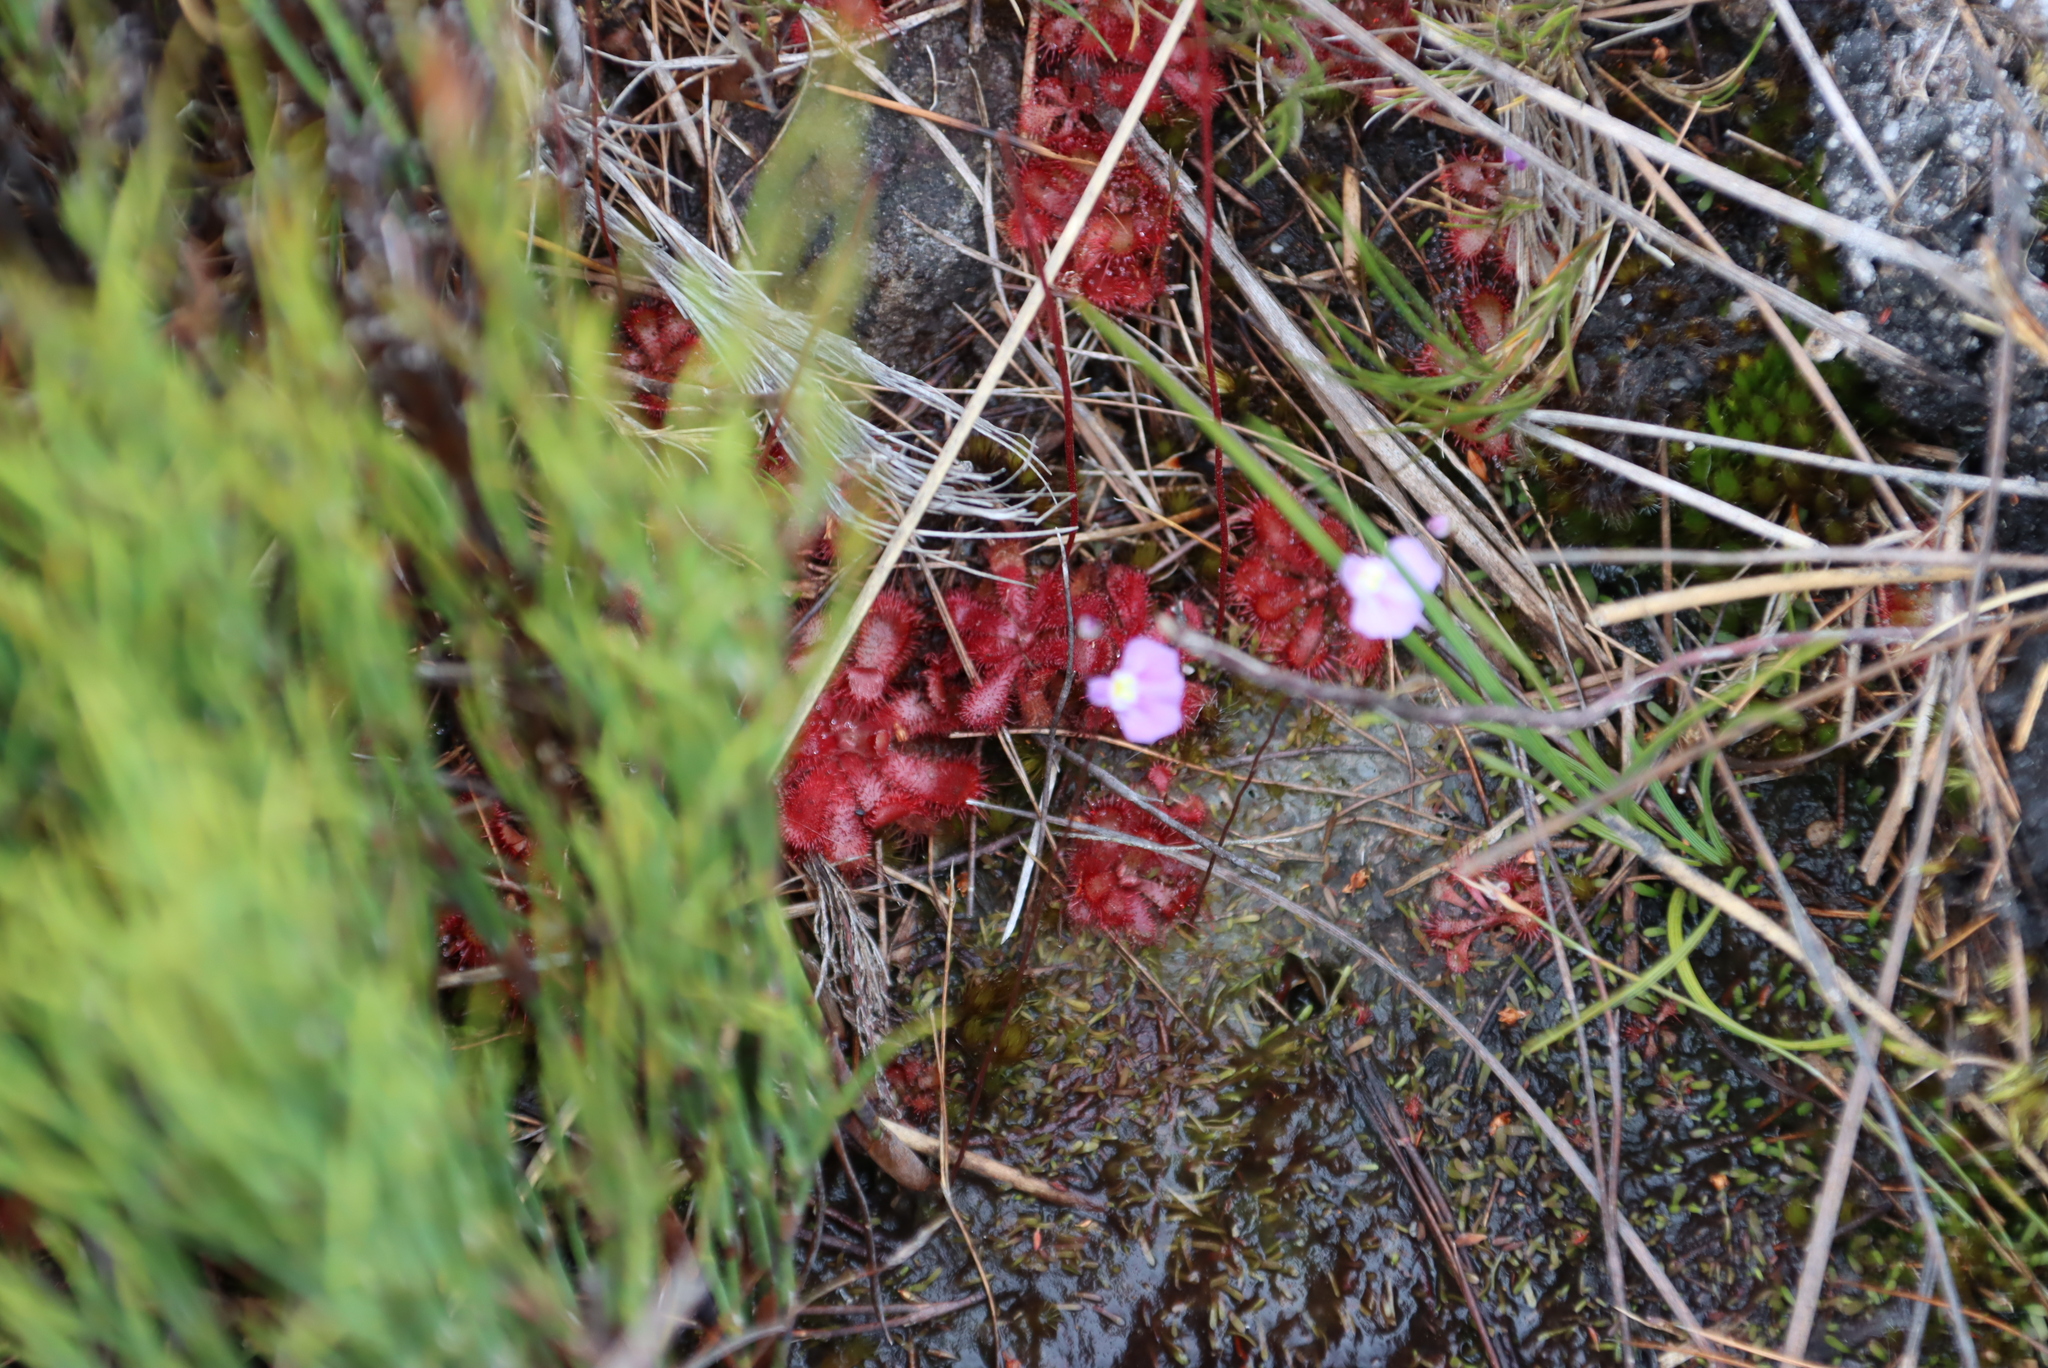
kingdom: Plantae
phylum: Tracheophyta
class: Magnoliopsida
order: Lamiales
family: Lentibulariaceae
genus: Utricularia
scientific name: Utricularia bisquamata
